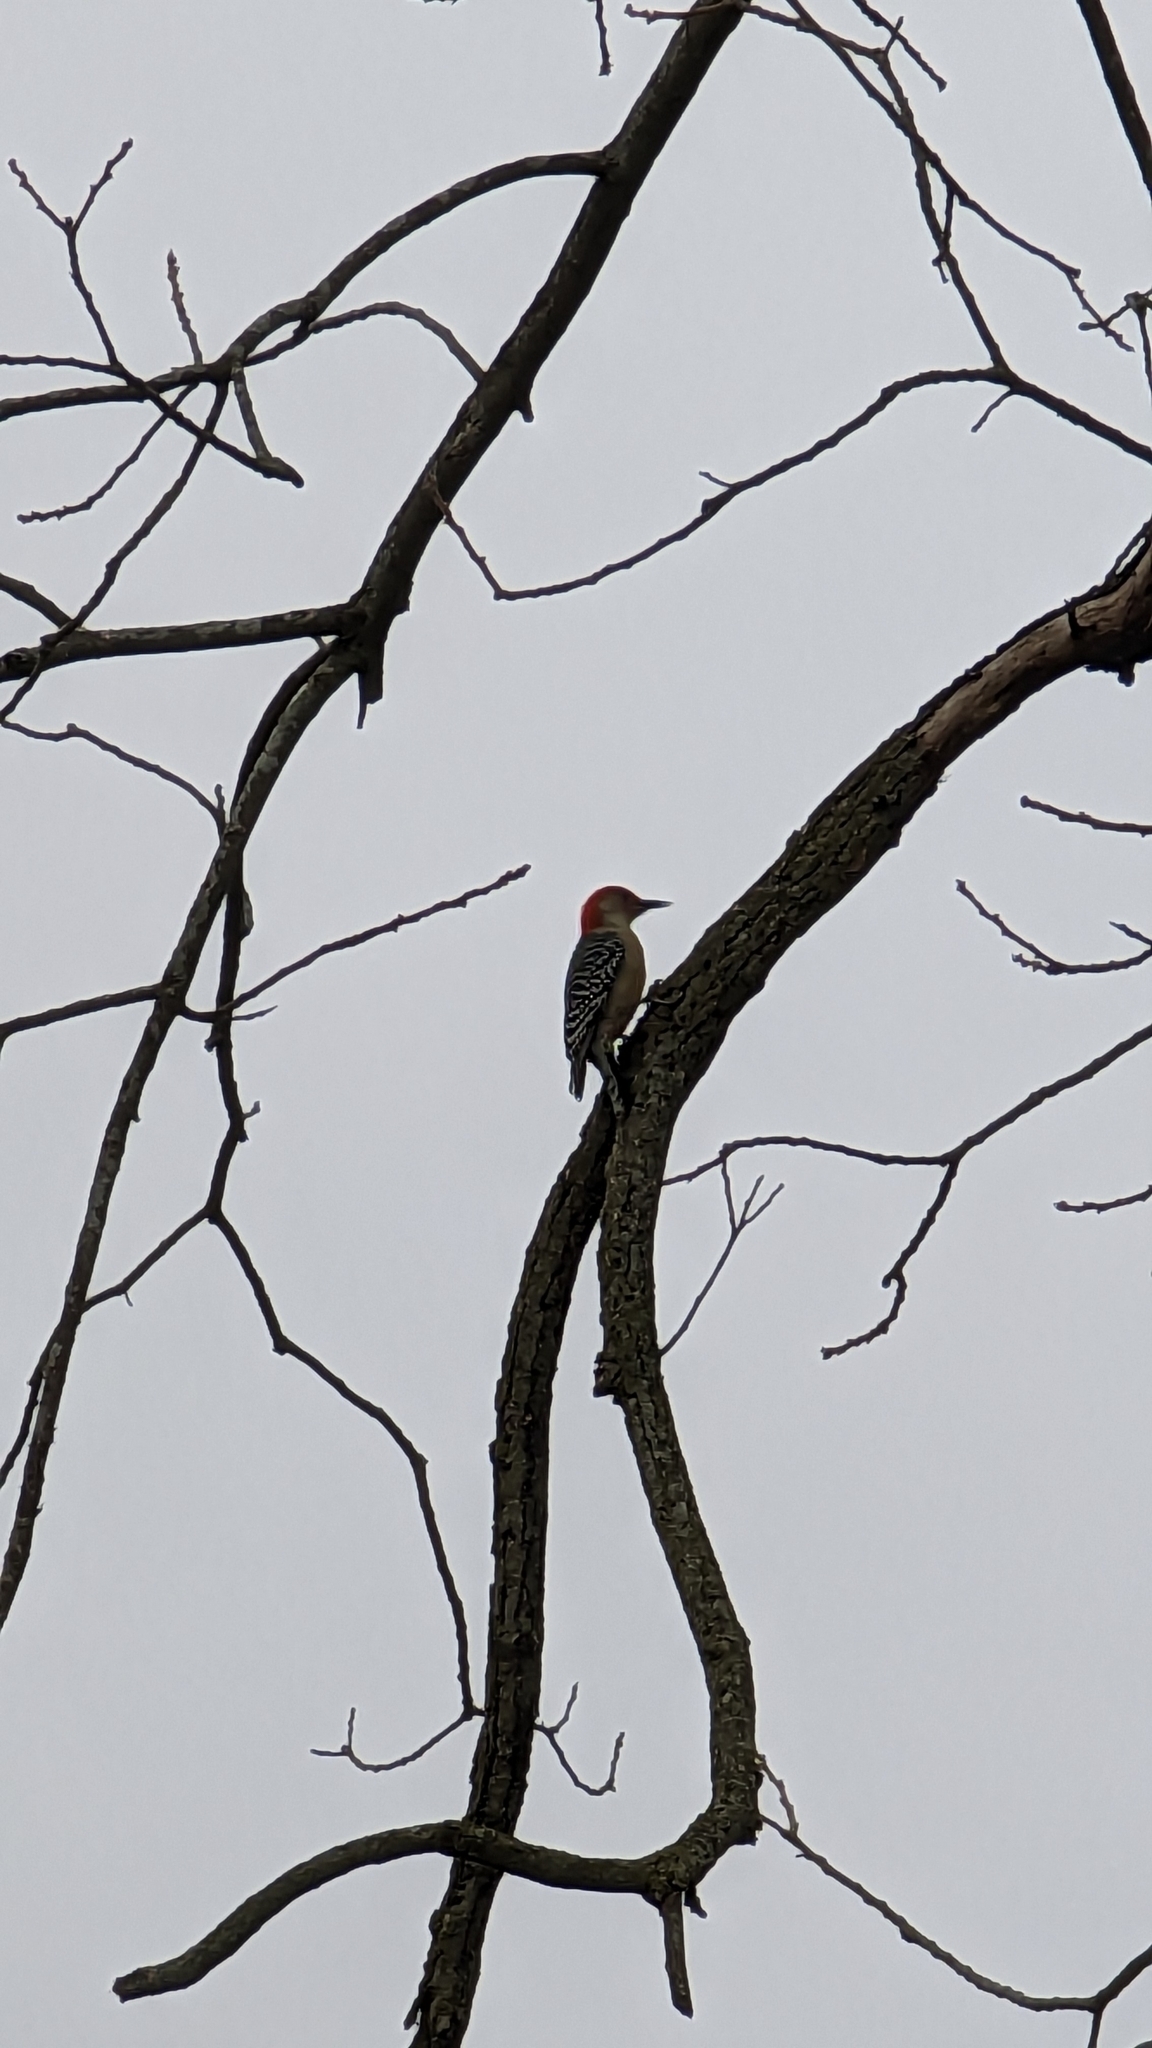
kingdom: Animalia
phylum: Chordata
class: Aves
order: Piciformes
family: Picidae
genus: Melanerpes
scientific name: Melanerpes carolinus
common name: Red-bellied woodpecker
